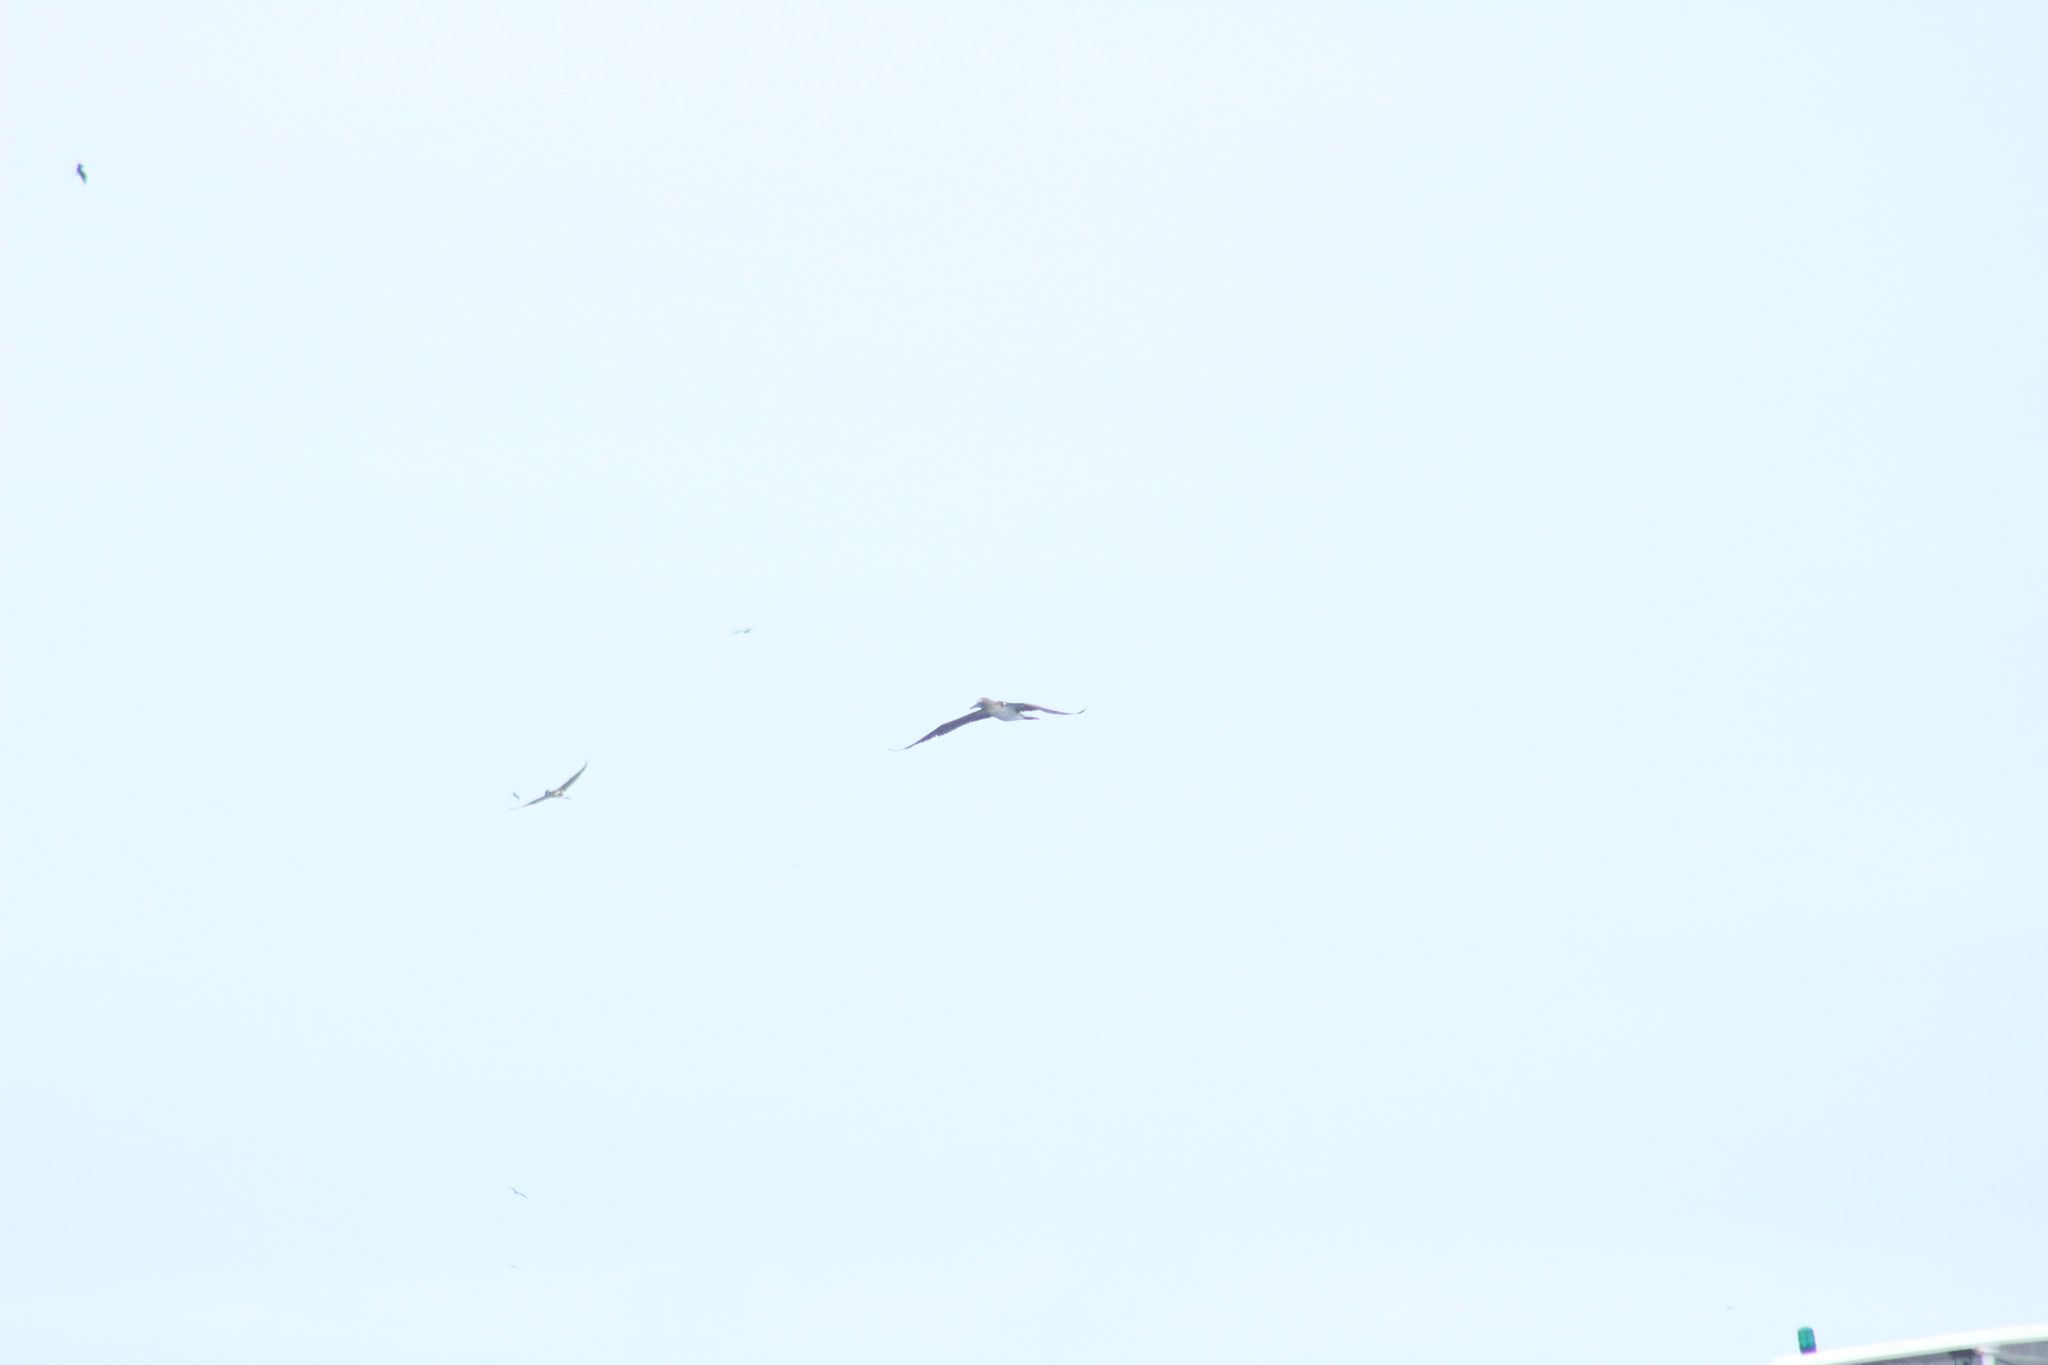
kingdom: Animalia
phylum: Chordata
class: Aves
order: Suliformes
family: Sulidae
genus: Sula
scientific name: Sula nebouxii
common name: Blue-footed booby
